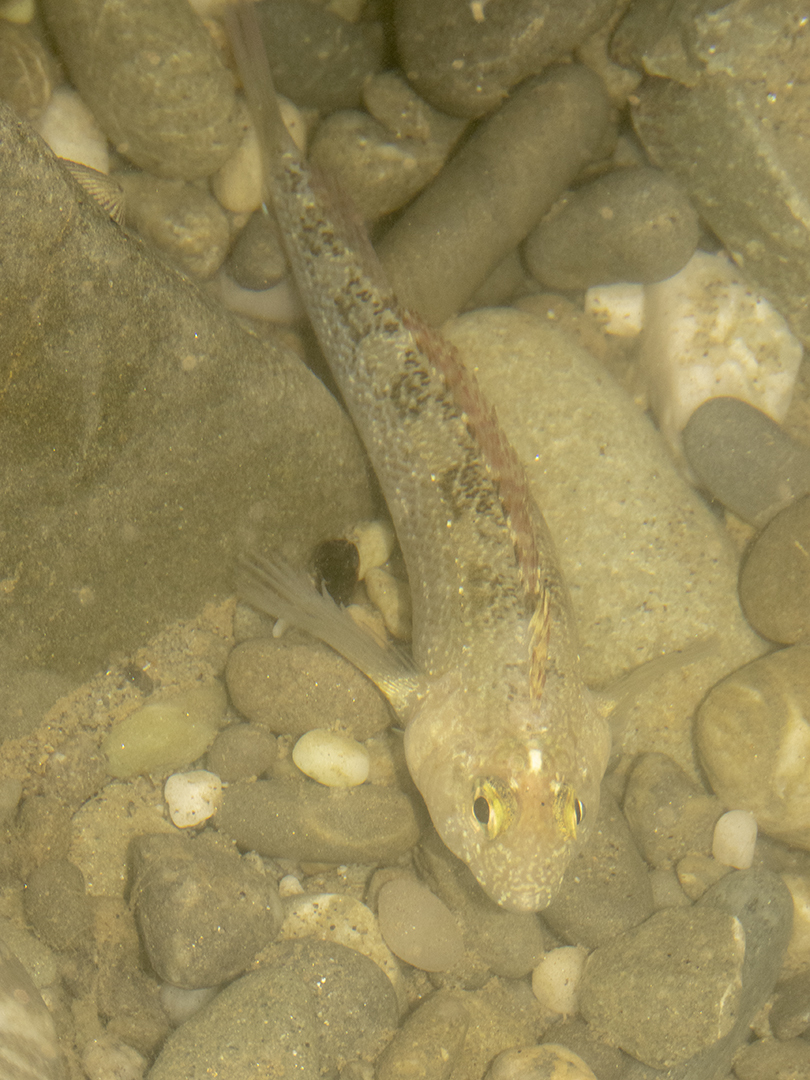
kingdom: Animalia
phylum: Chordata
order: Perciformes
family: Tripterygiidae
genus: Forsterygion
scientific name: Forsterygion lapillum
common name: Common triplefin
